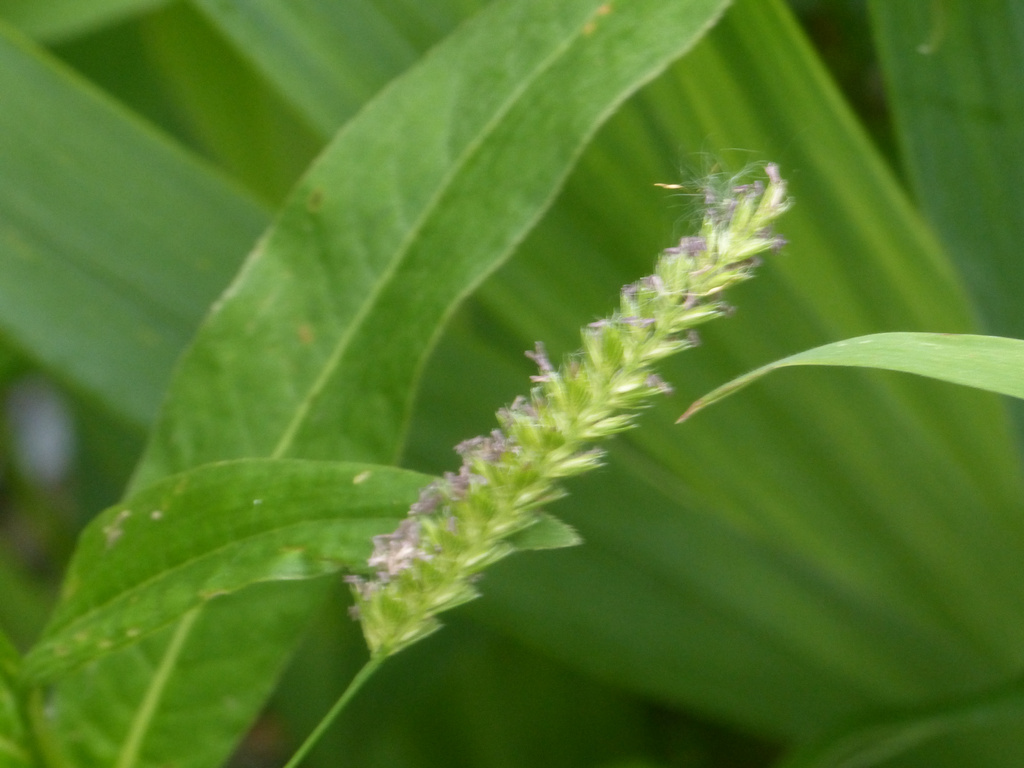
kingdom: Plantae
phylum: Tracheophyta
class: Liliopsida
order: Poales
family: Poaceae
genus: Cynosurus
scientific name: Cynosurus cristatus
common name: Crested dog's-tail
